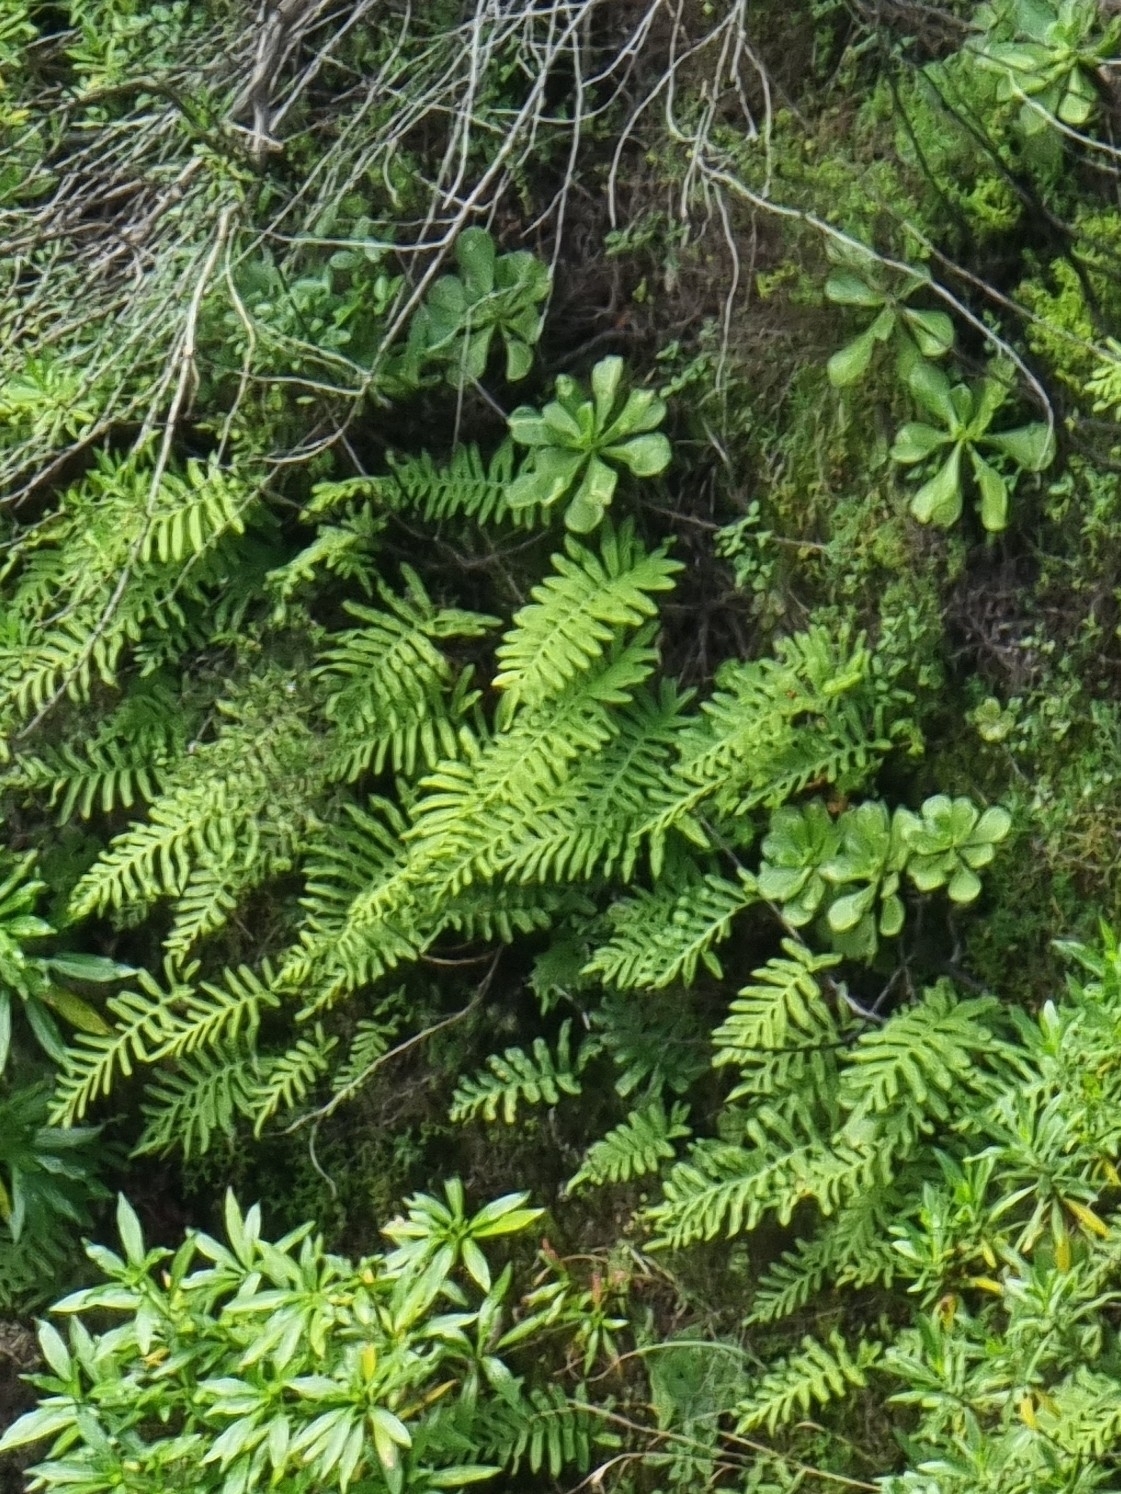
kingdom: Plantae
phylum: Tracheophyta
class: Polypodiopsida
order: Polypodiales
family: Polypodiaceae
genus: Polypodium
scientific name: Polypodium macaronesicum
